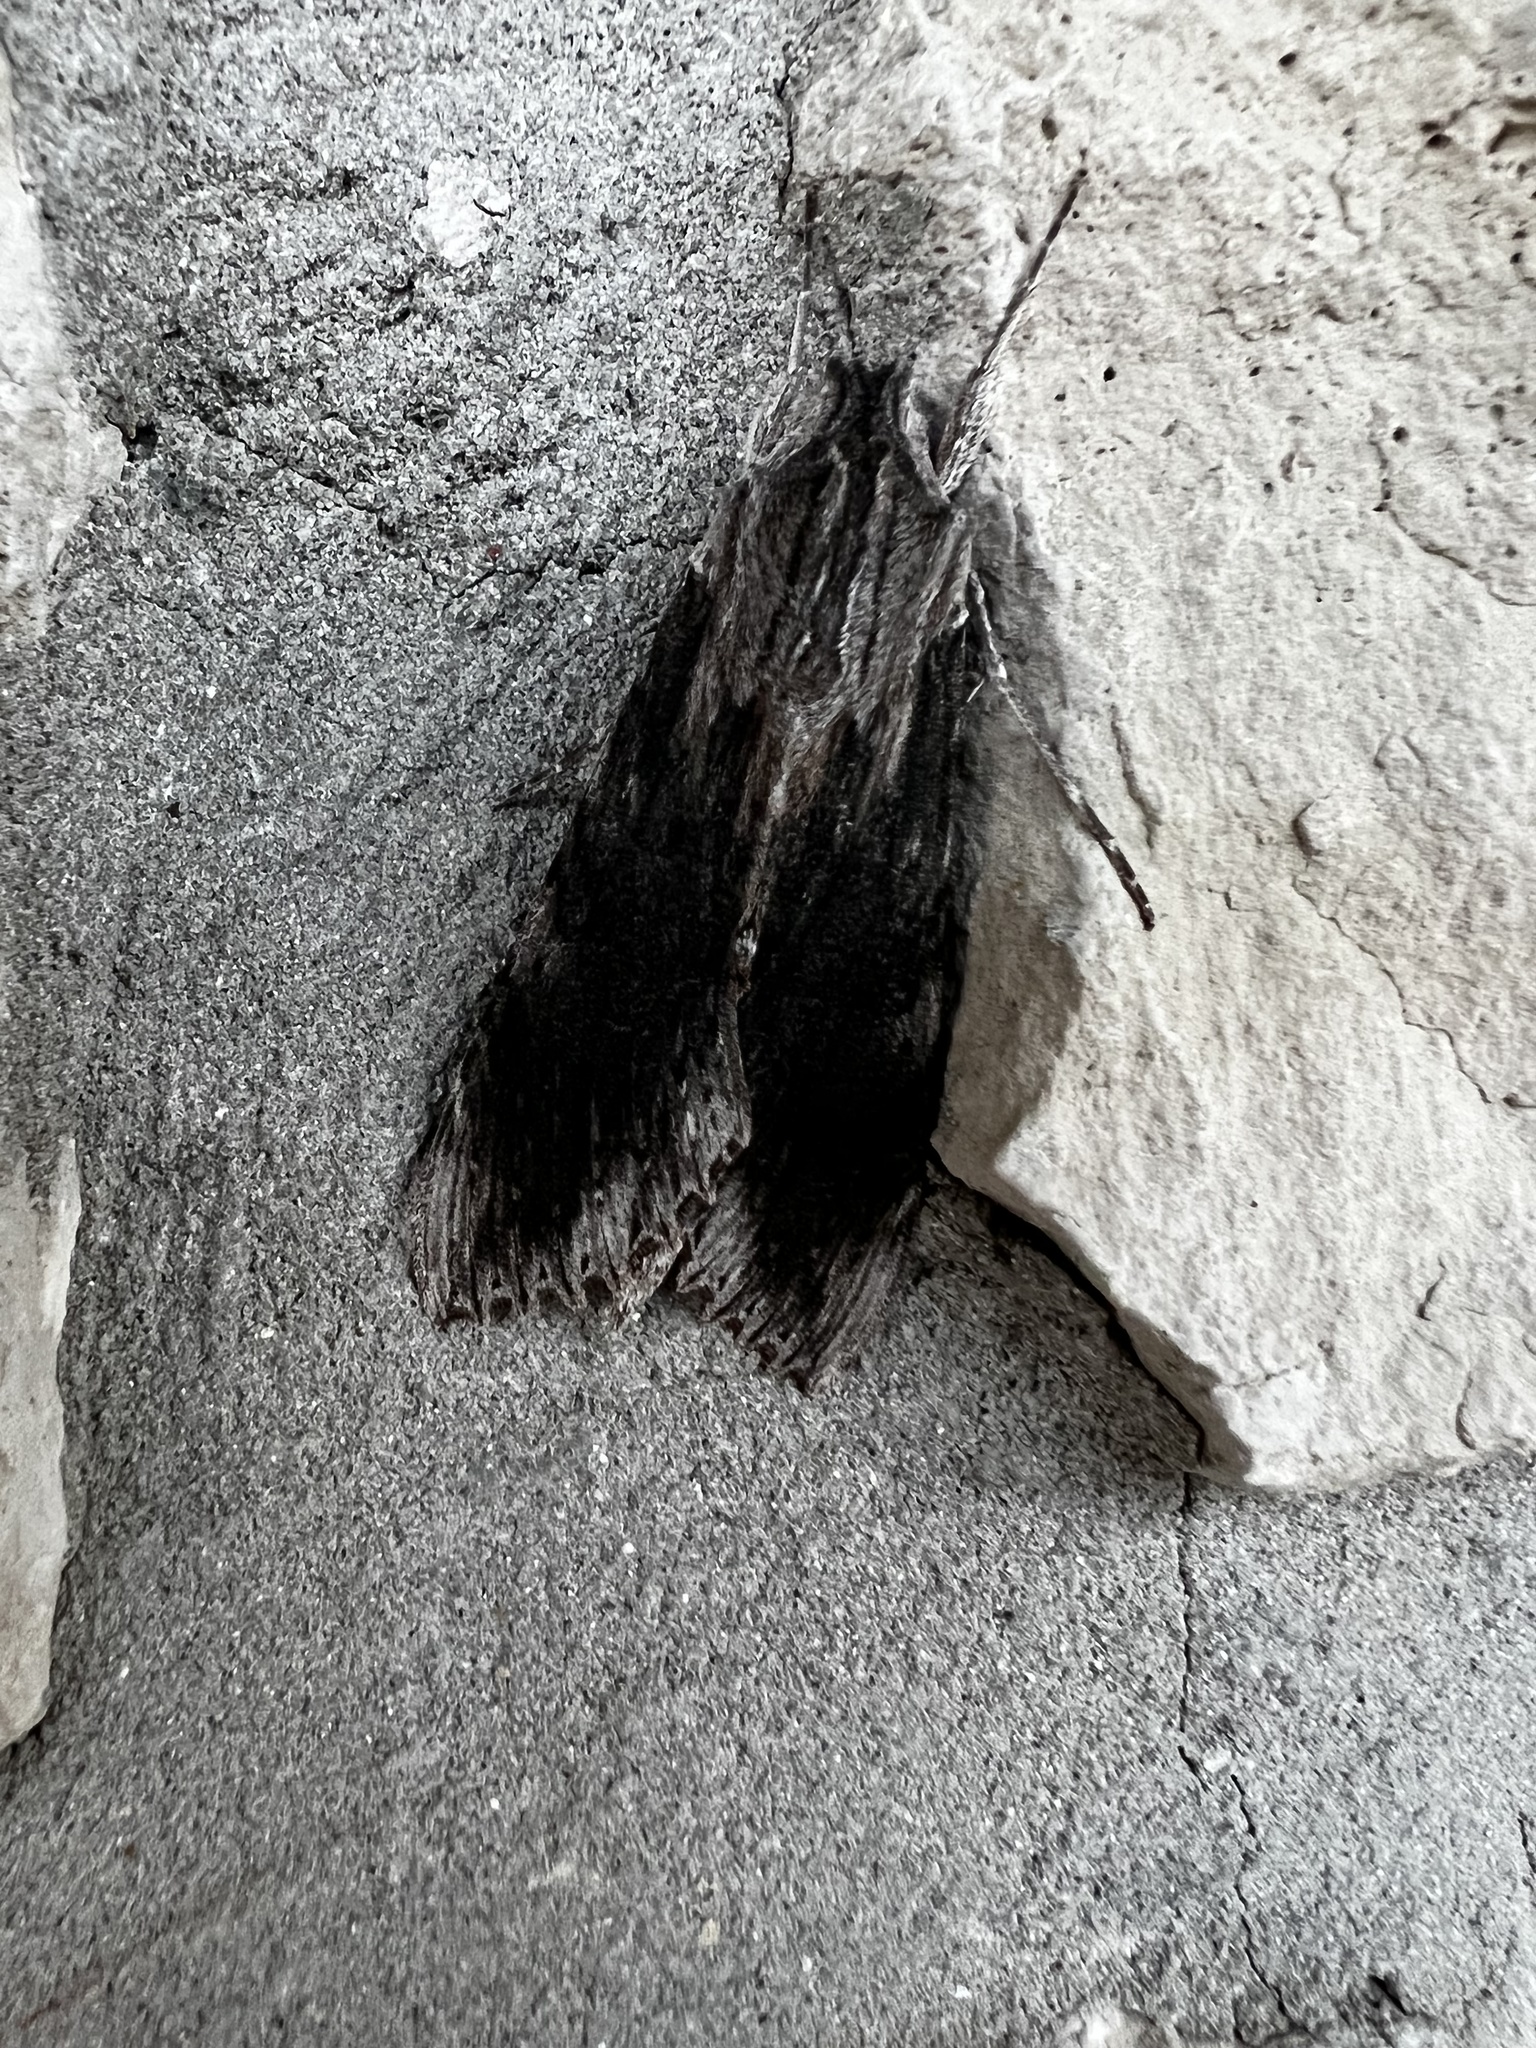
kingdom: Animalia
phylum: Arthropoda
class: Insecta
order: Lepidoptera
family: Sphingidae
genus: Erinnyis
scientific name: Erinnyis obscura
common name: Obscure sphinx
